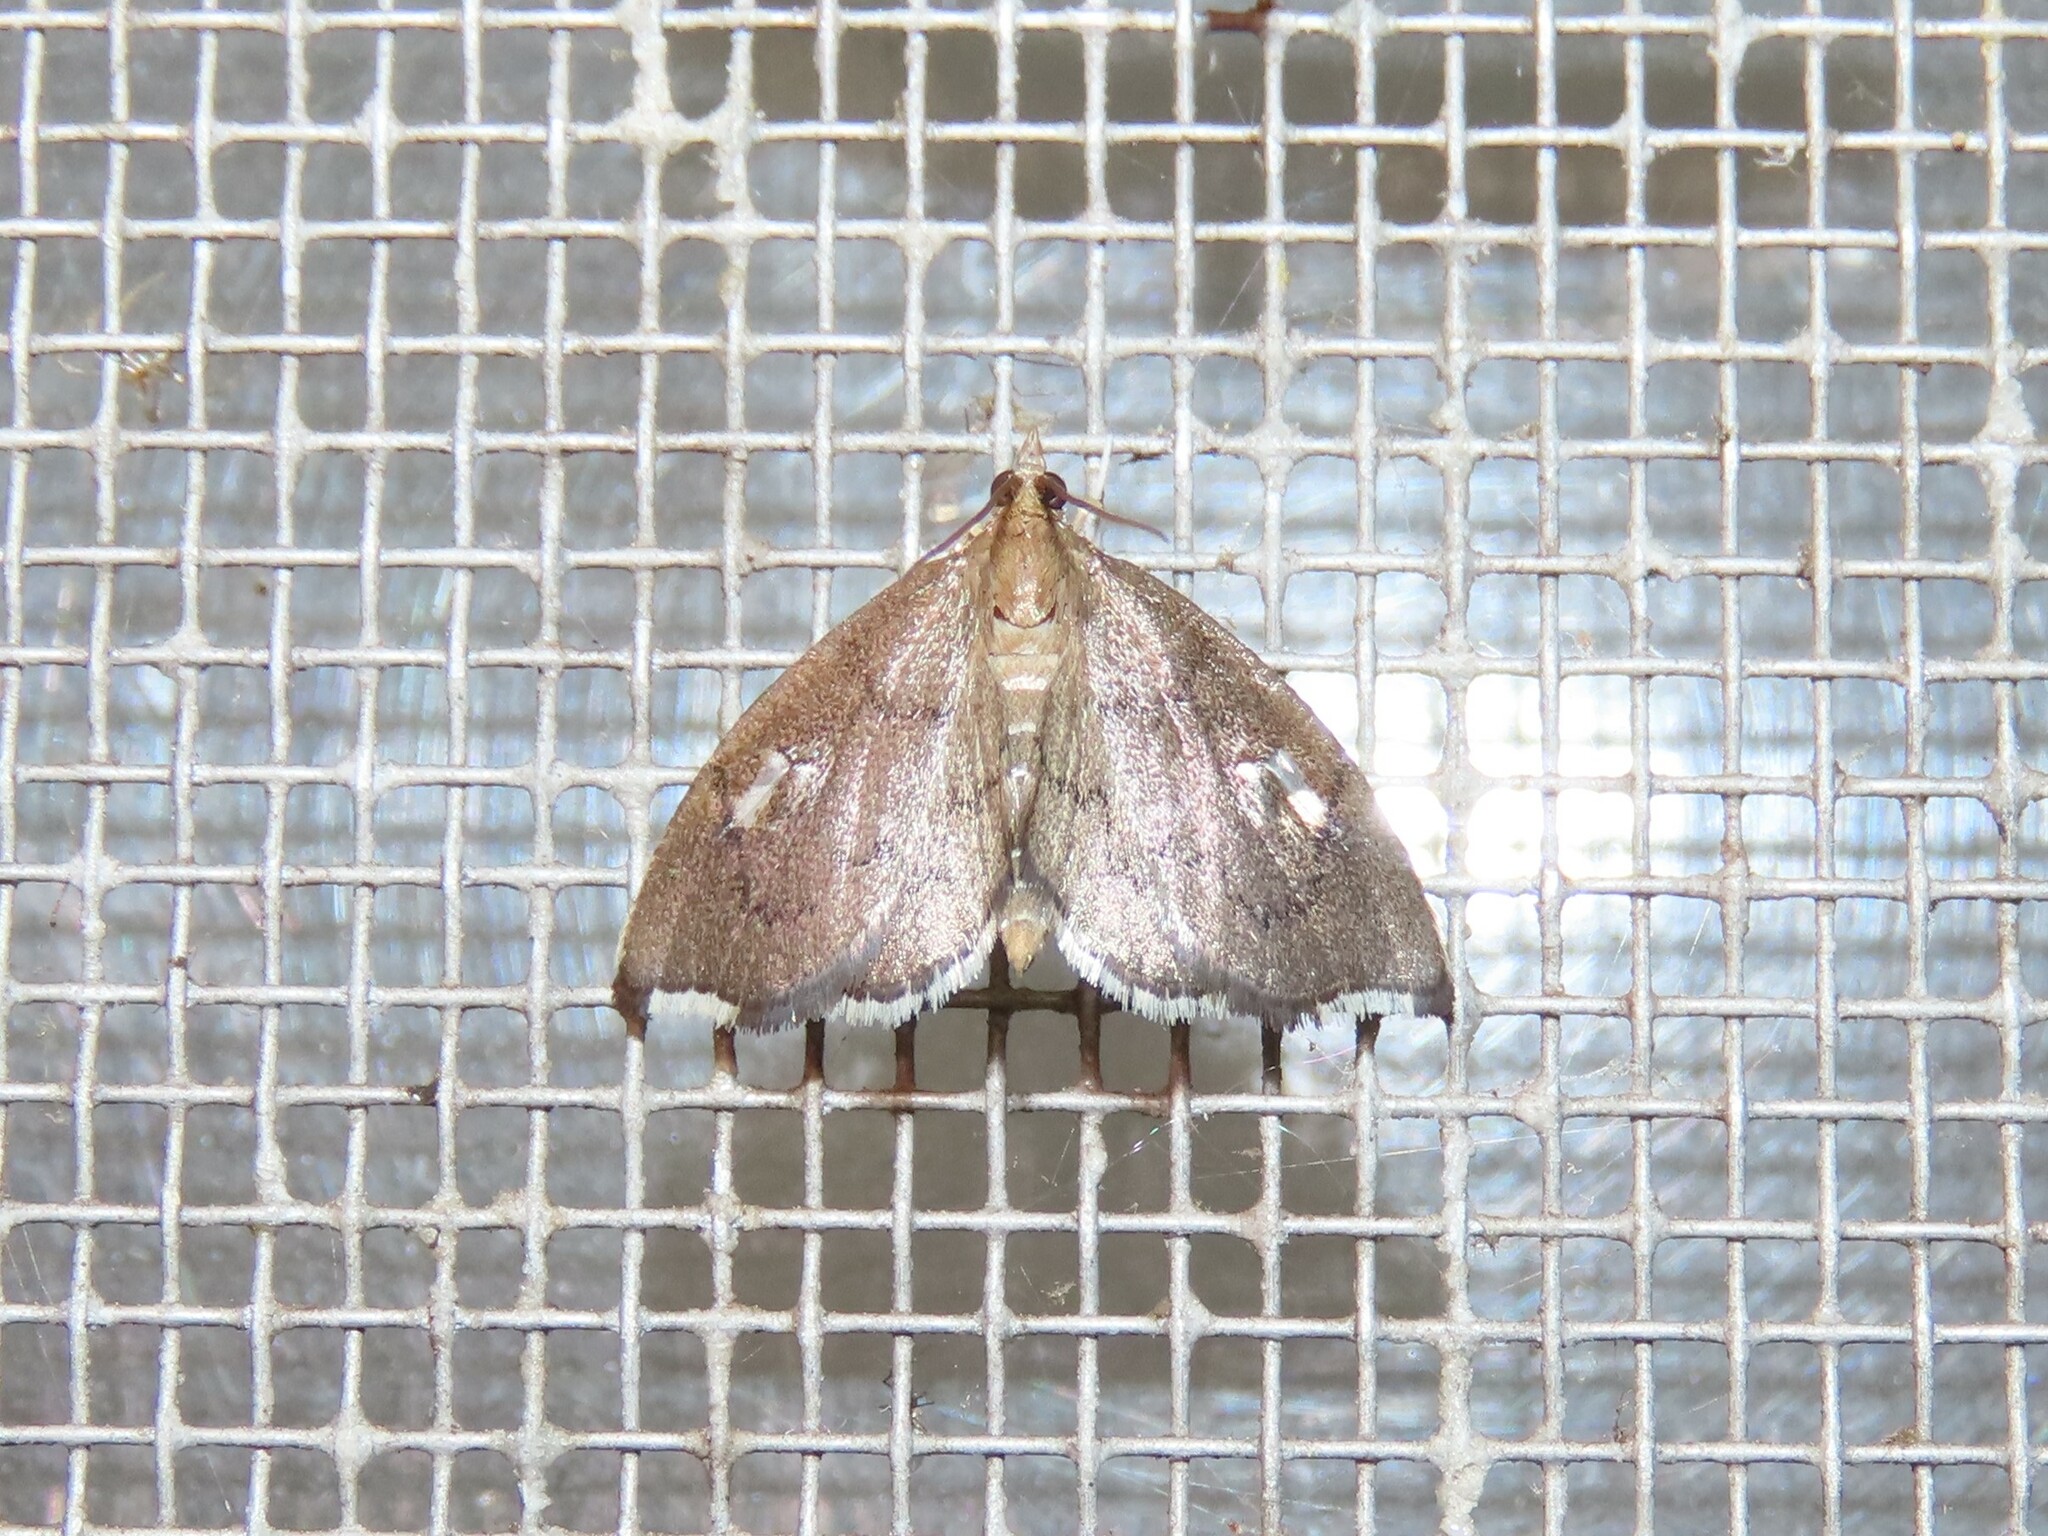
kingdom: Animalia
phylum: Arthropoda
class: Insecta
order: Lepidoptera
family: Crambidae
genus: Perispasta
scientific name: Perispasta caeculalis
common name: Titian peale's moth
